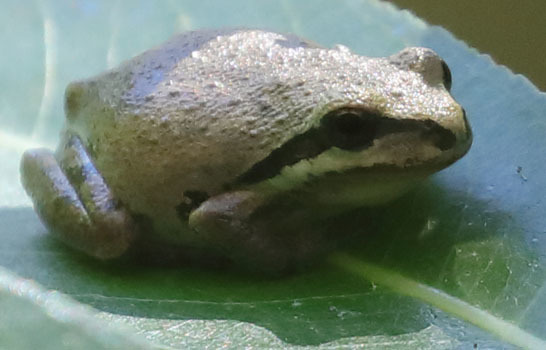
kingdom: Animalia
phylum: Chordata
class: Amphibia
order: Anura
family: Hylidae
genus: Pseudacris
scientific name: Pseudacris regilla
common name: Pacific chorus frog
